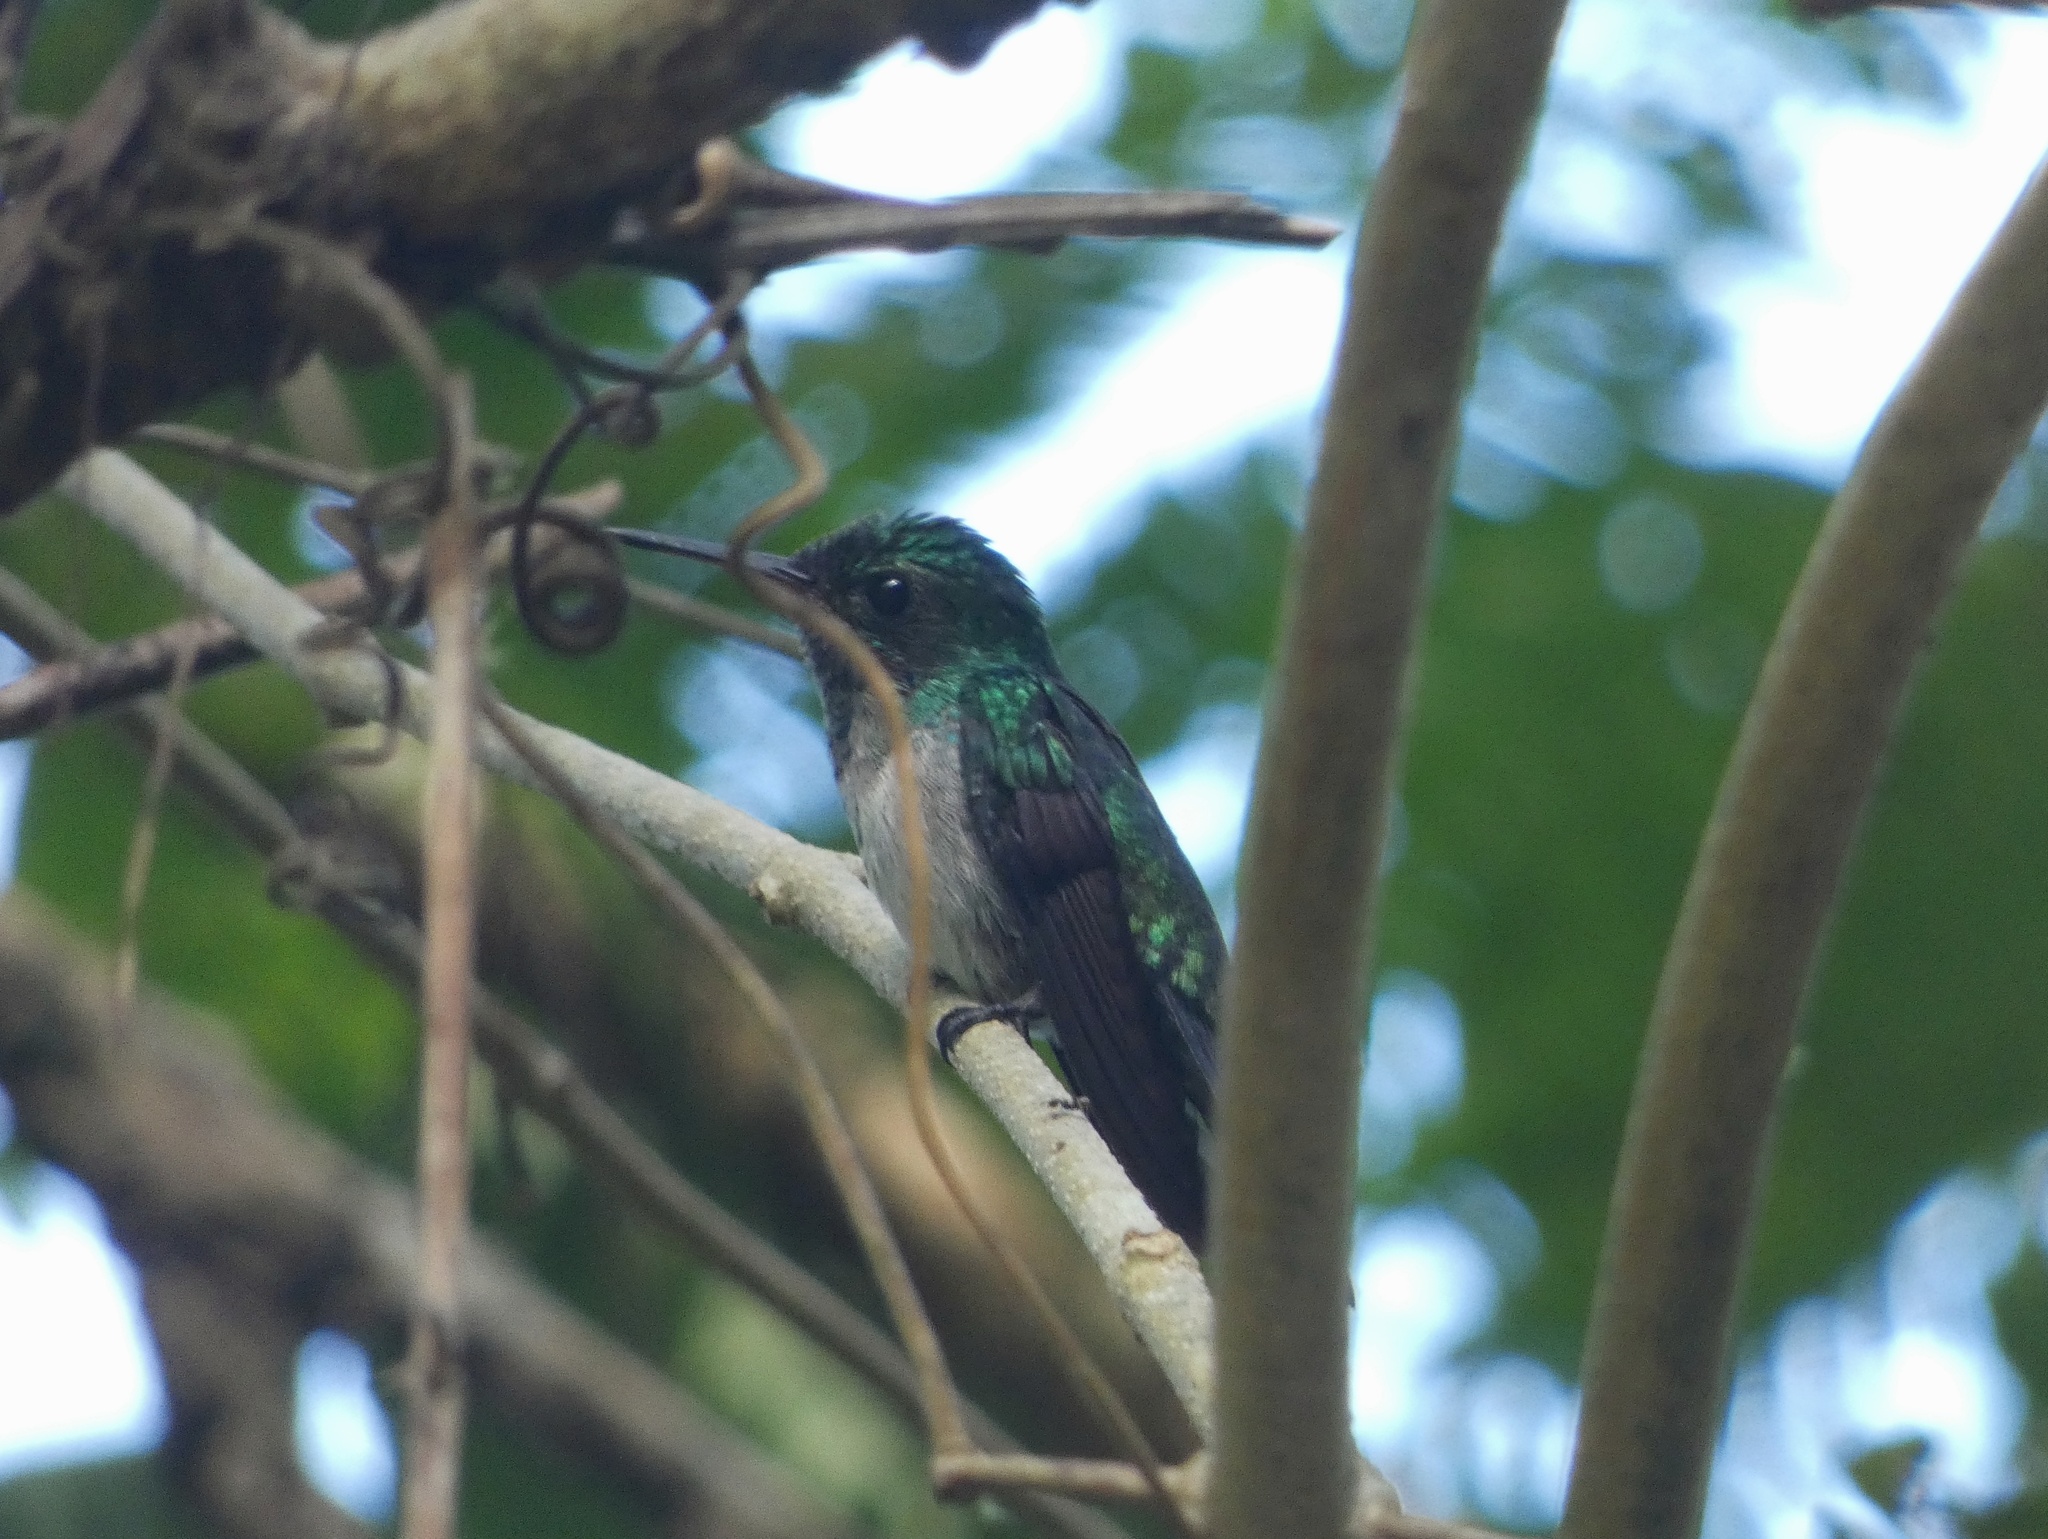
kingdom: Animalia
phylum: Chordata
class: Aves
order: Apodiformes
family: Trochilidae
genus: Chlorostilbon
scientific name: Chlorostilbon assimilis
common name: Garden emerald
